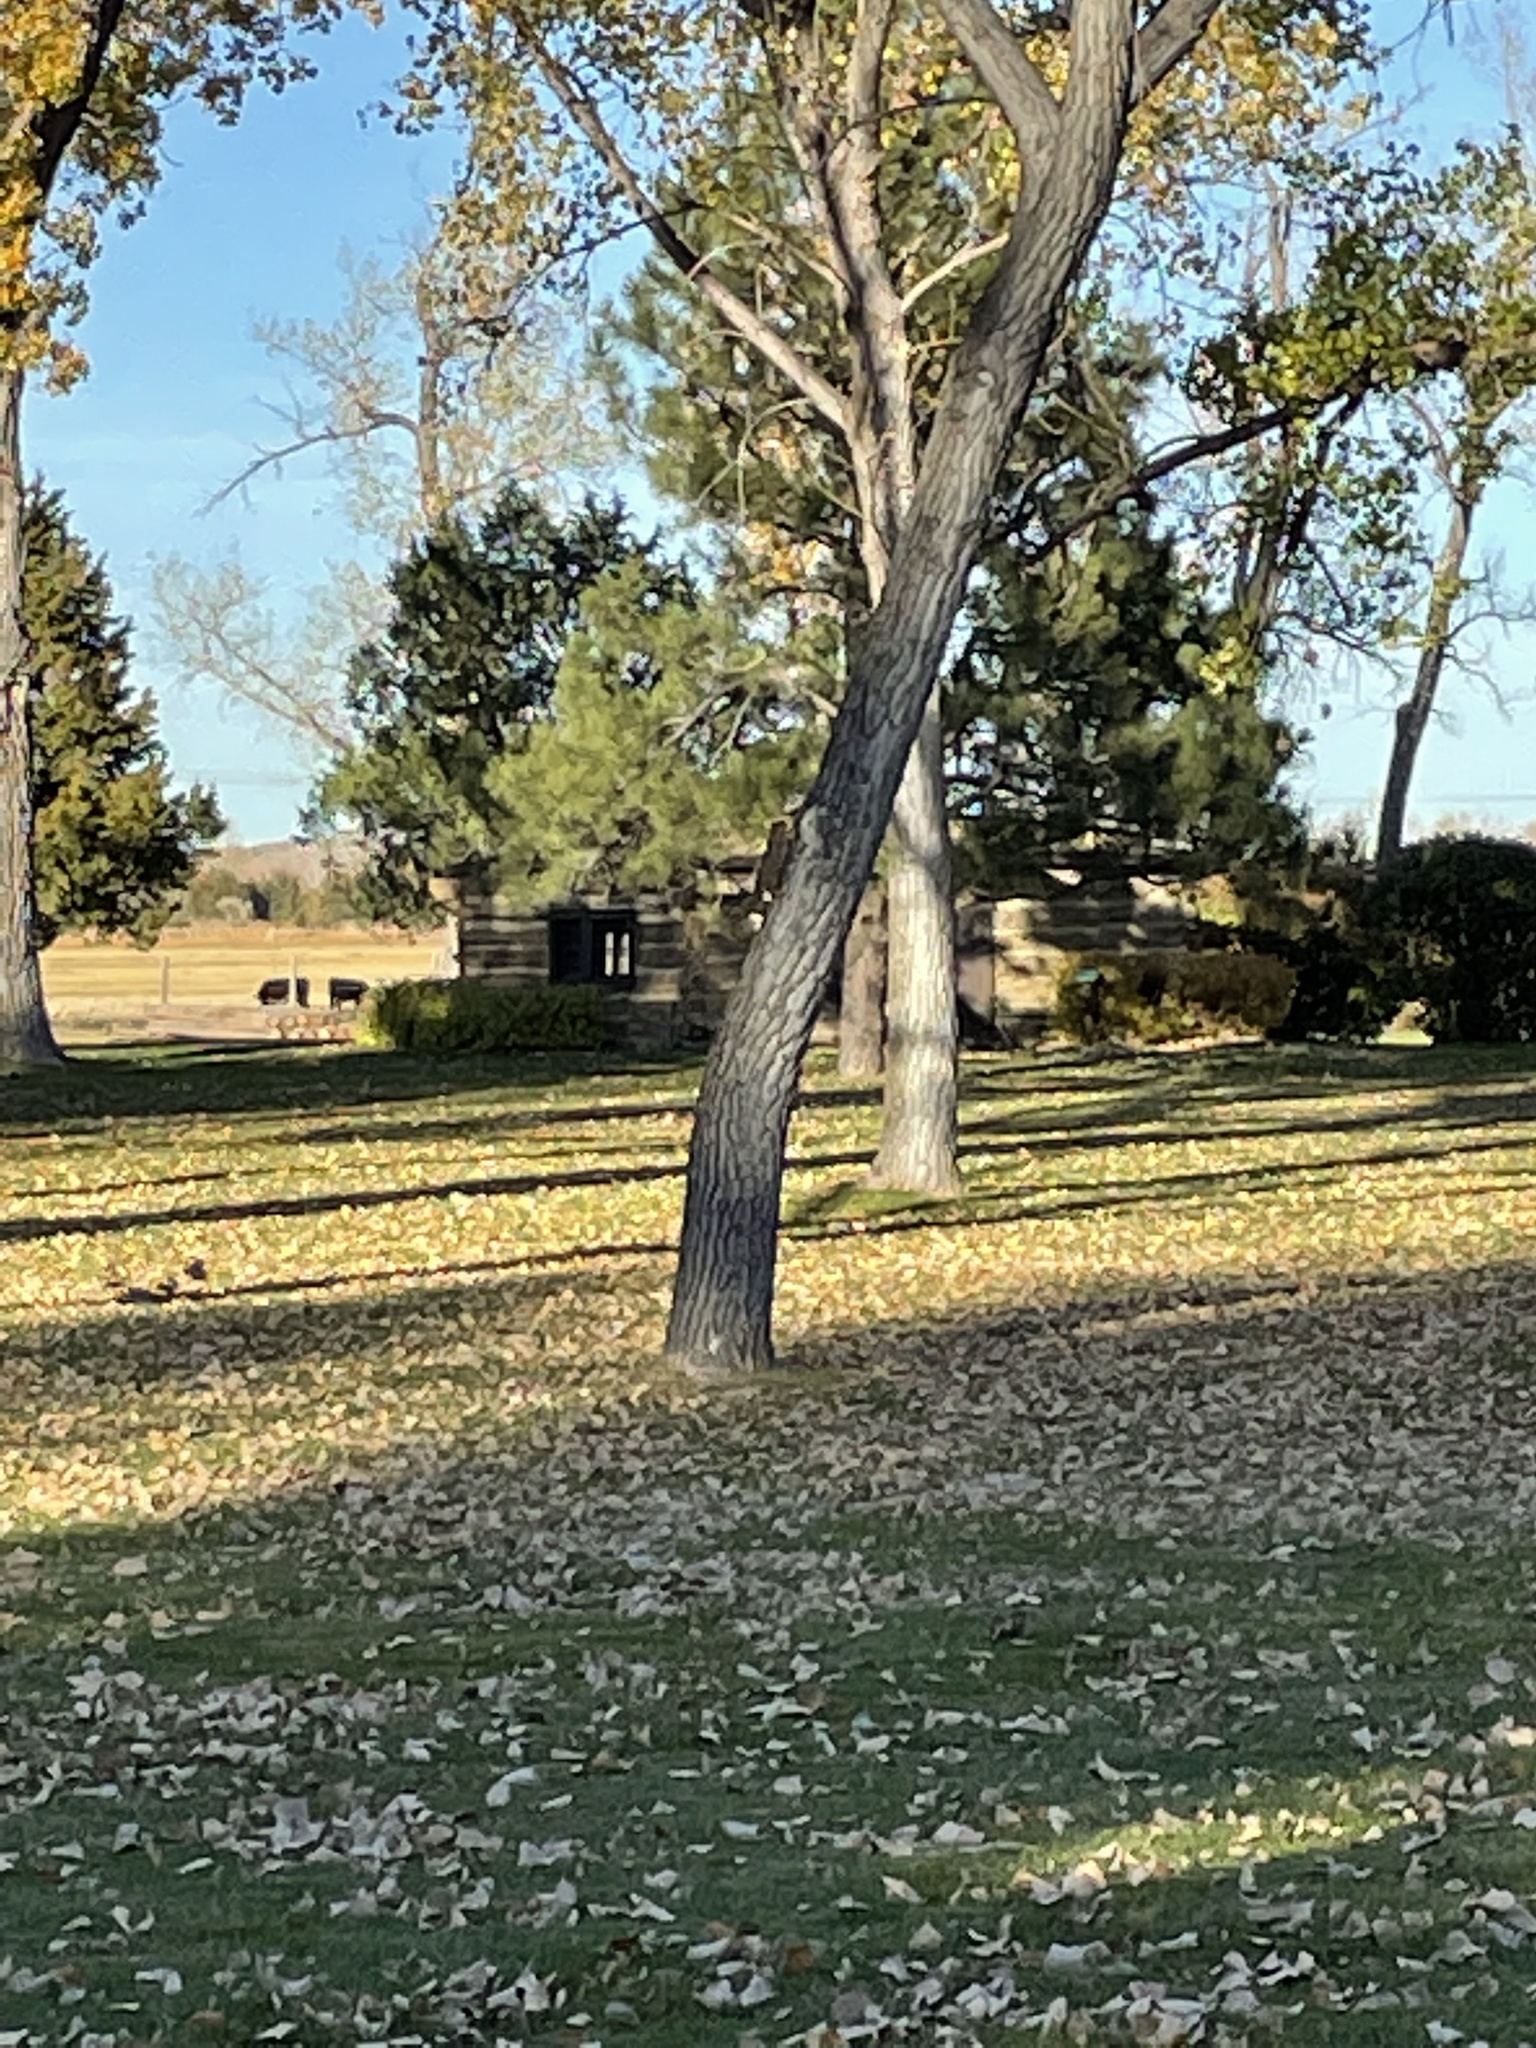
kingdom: Animalia
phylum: Chordata
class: Mammalia
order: Rodentia
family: Sciuridae
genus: Sciurus
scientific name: Sciurus niger
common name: Fox squirrel
